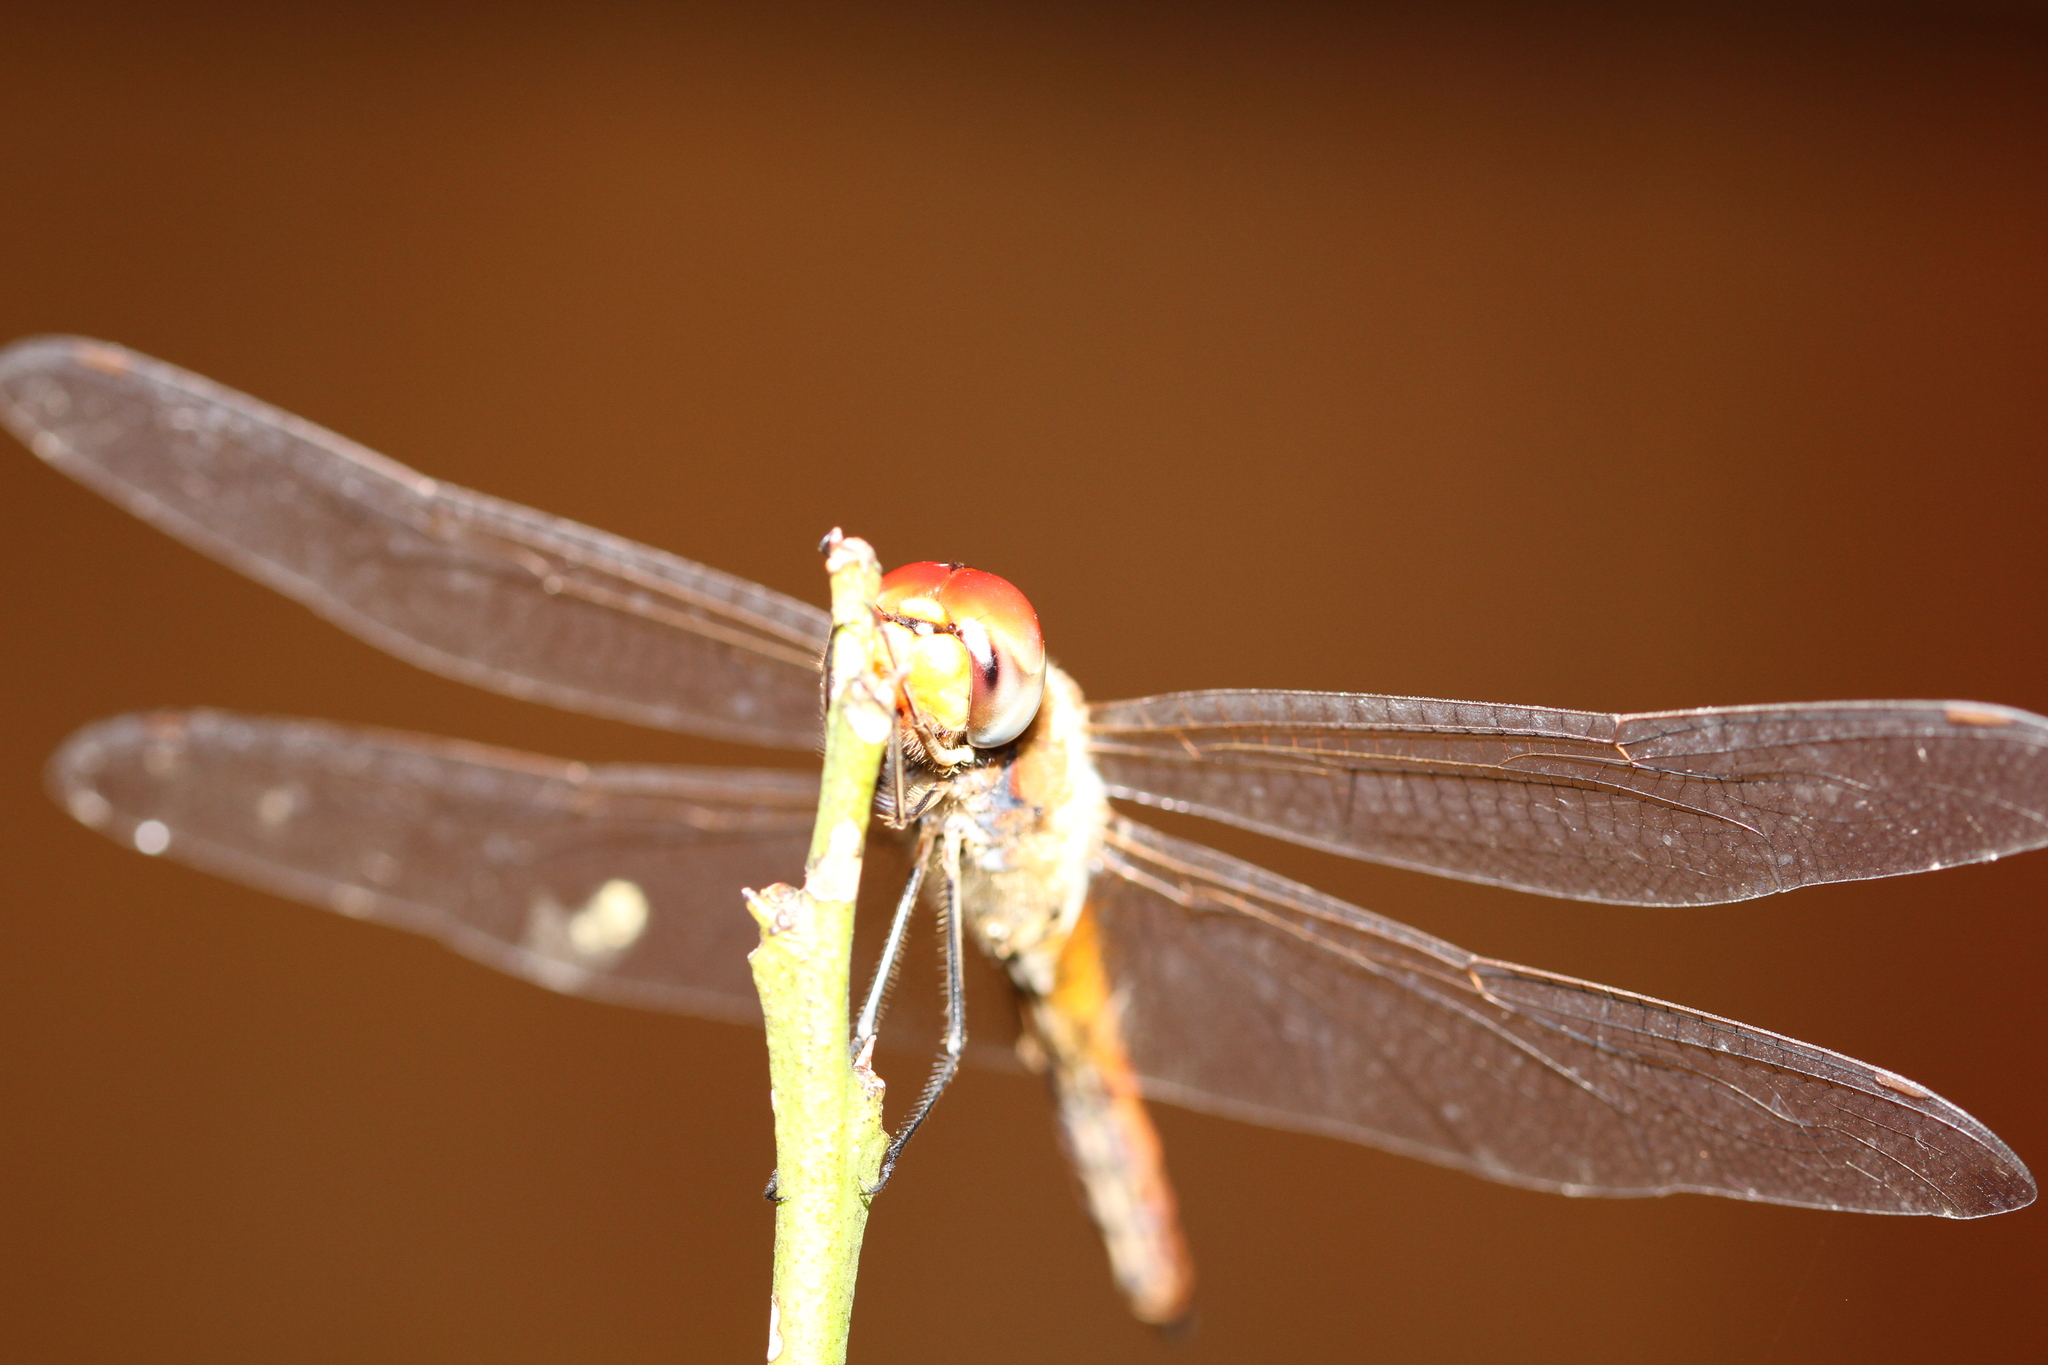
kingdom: Animalia
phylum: Arthropoda
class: Insecta
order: Odonata
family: Libellulidae
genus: Pantala
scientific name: Pantala flavescens
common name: Wandering glider
